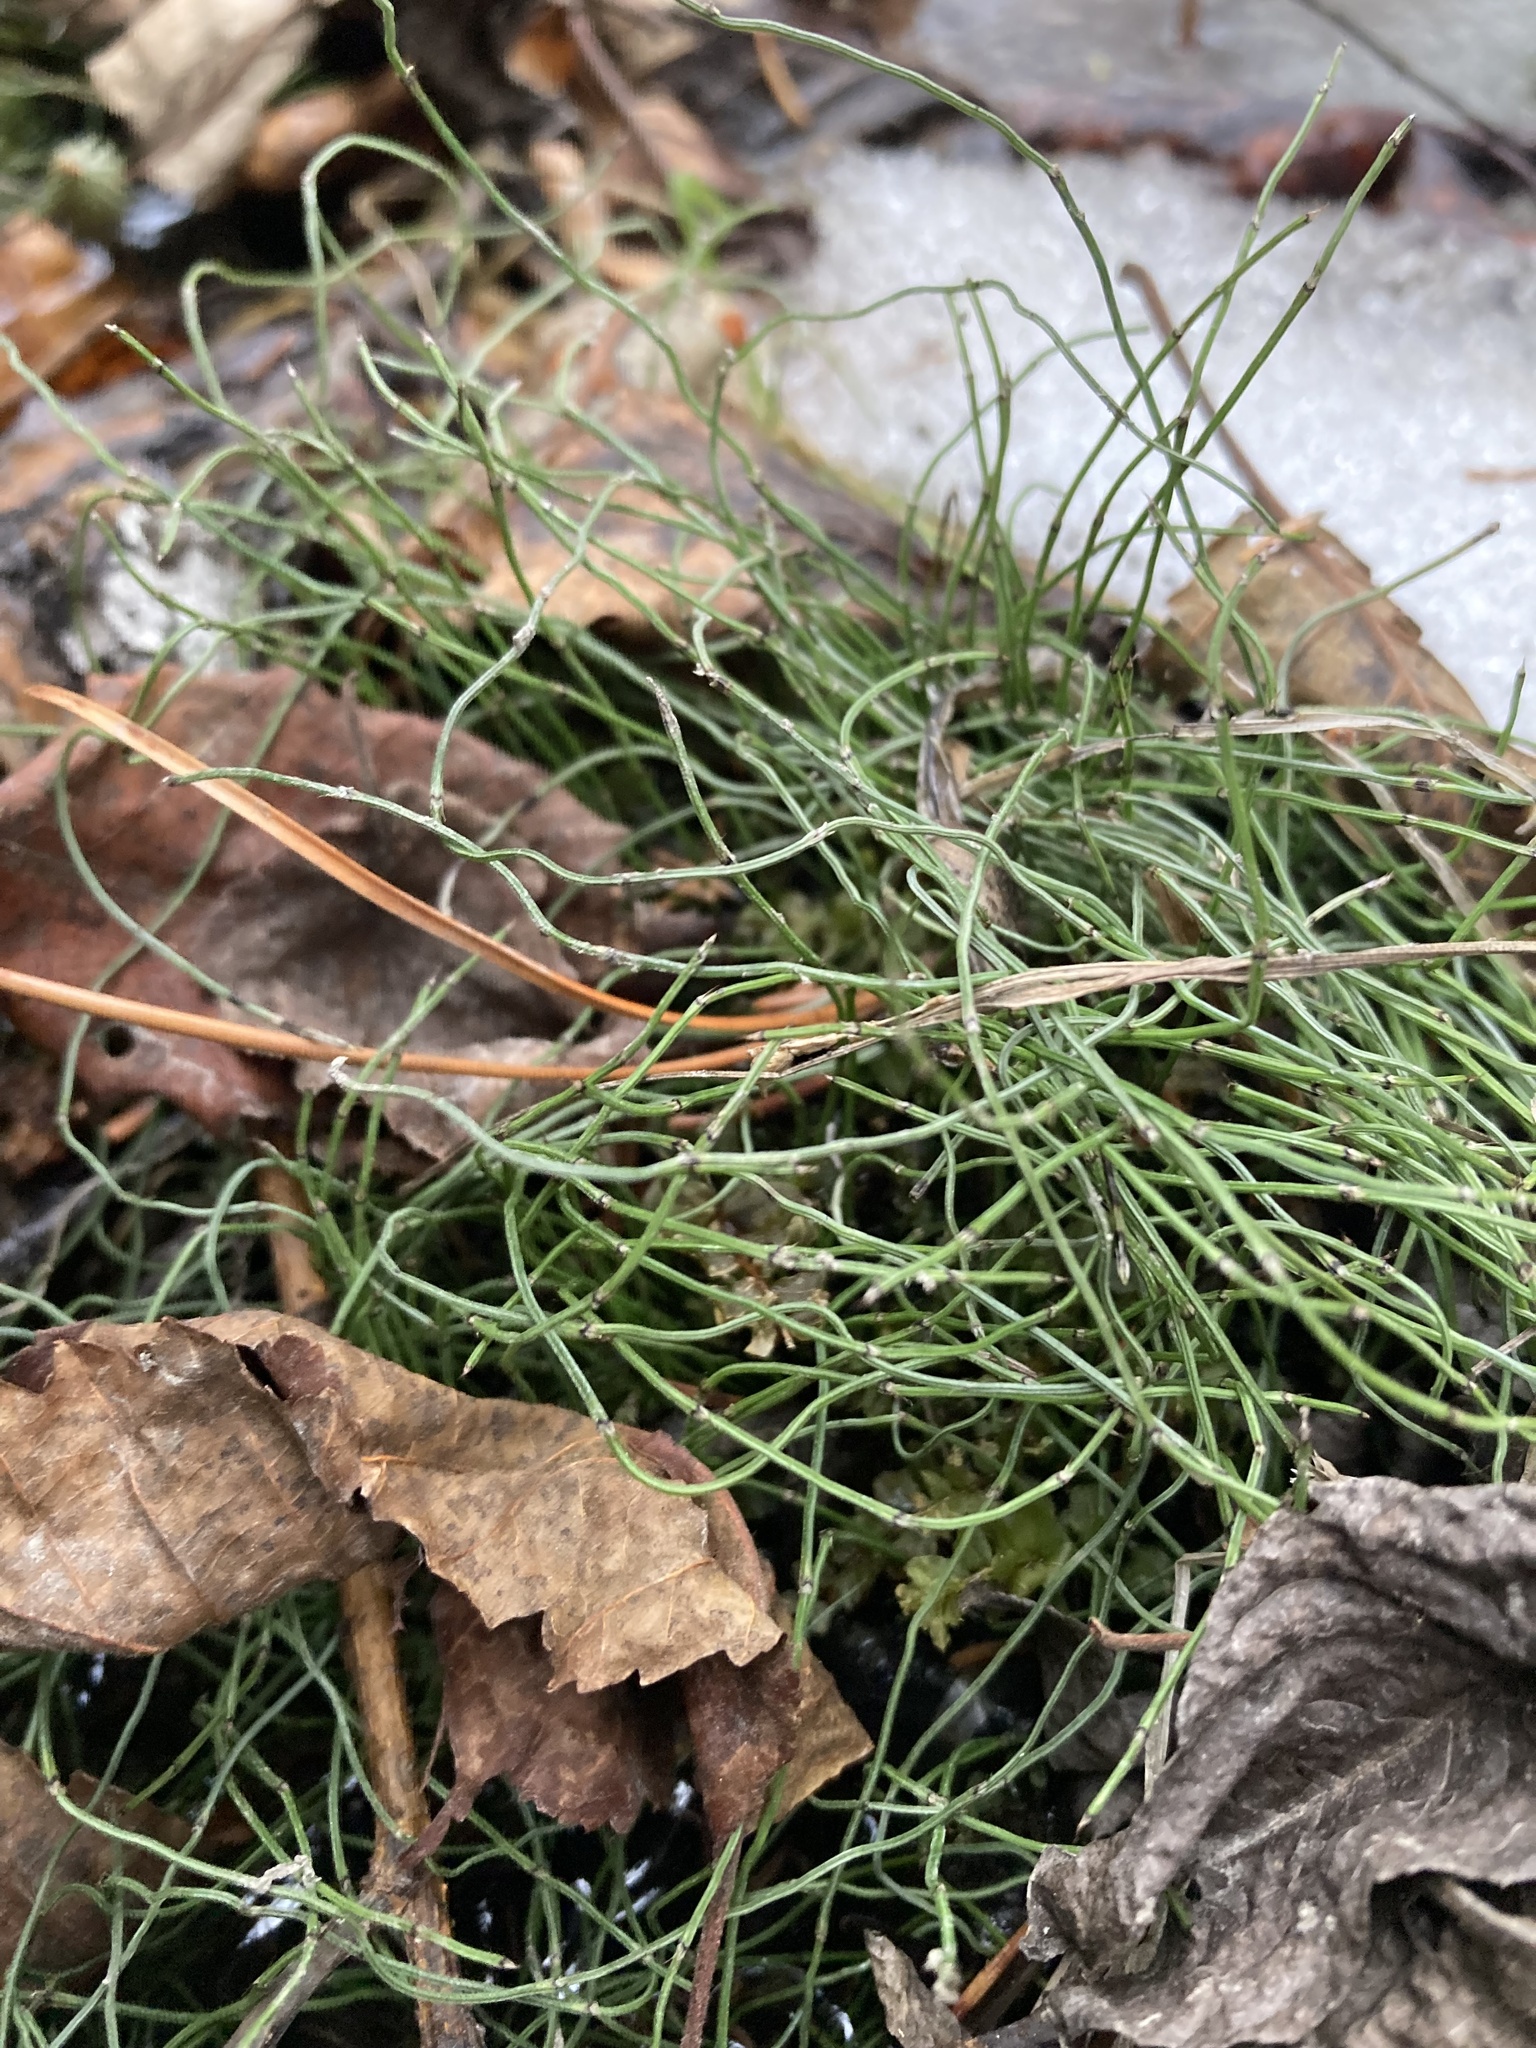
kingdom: Plantae
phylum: Tracheophyta
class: Polypodiopsida
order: Equisetales
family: Equisetaceae
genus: Equisetum
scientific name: Equisetum scirpoides
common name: Delicate horsetail
